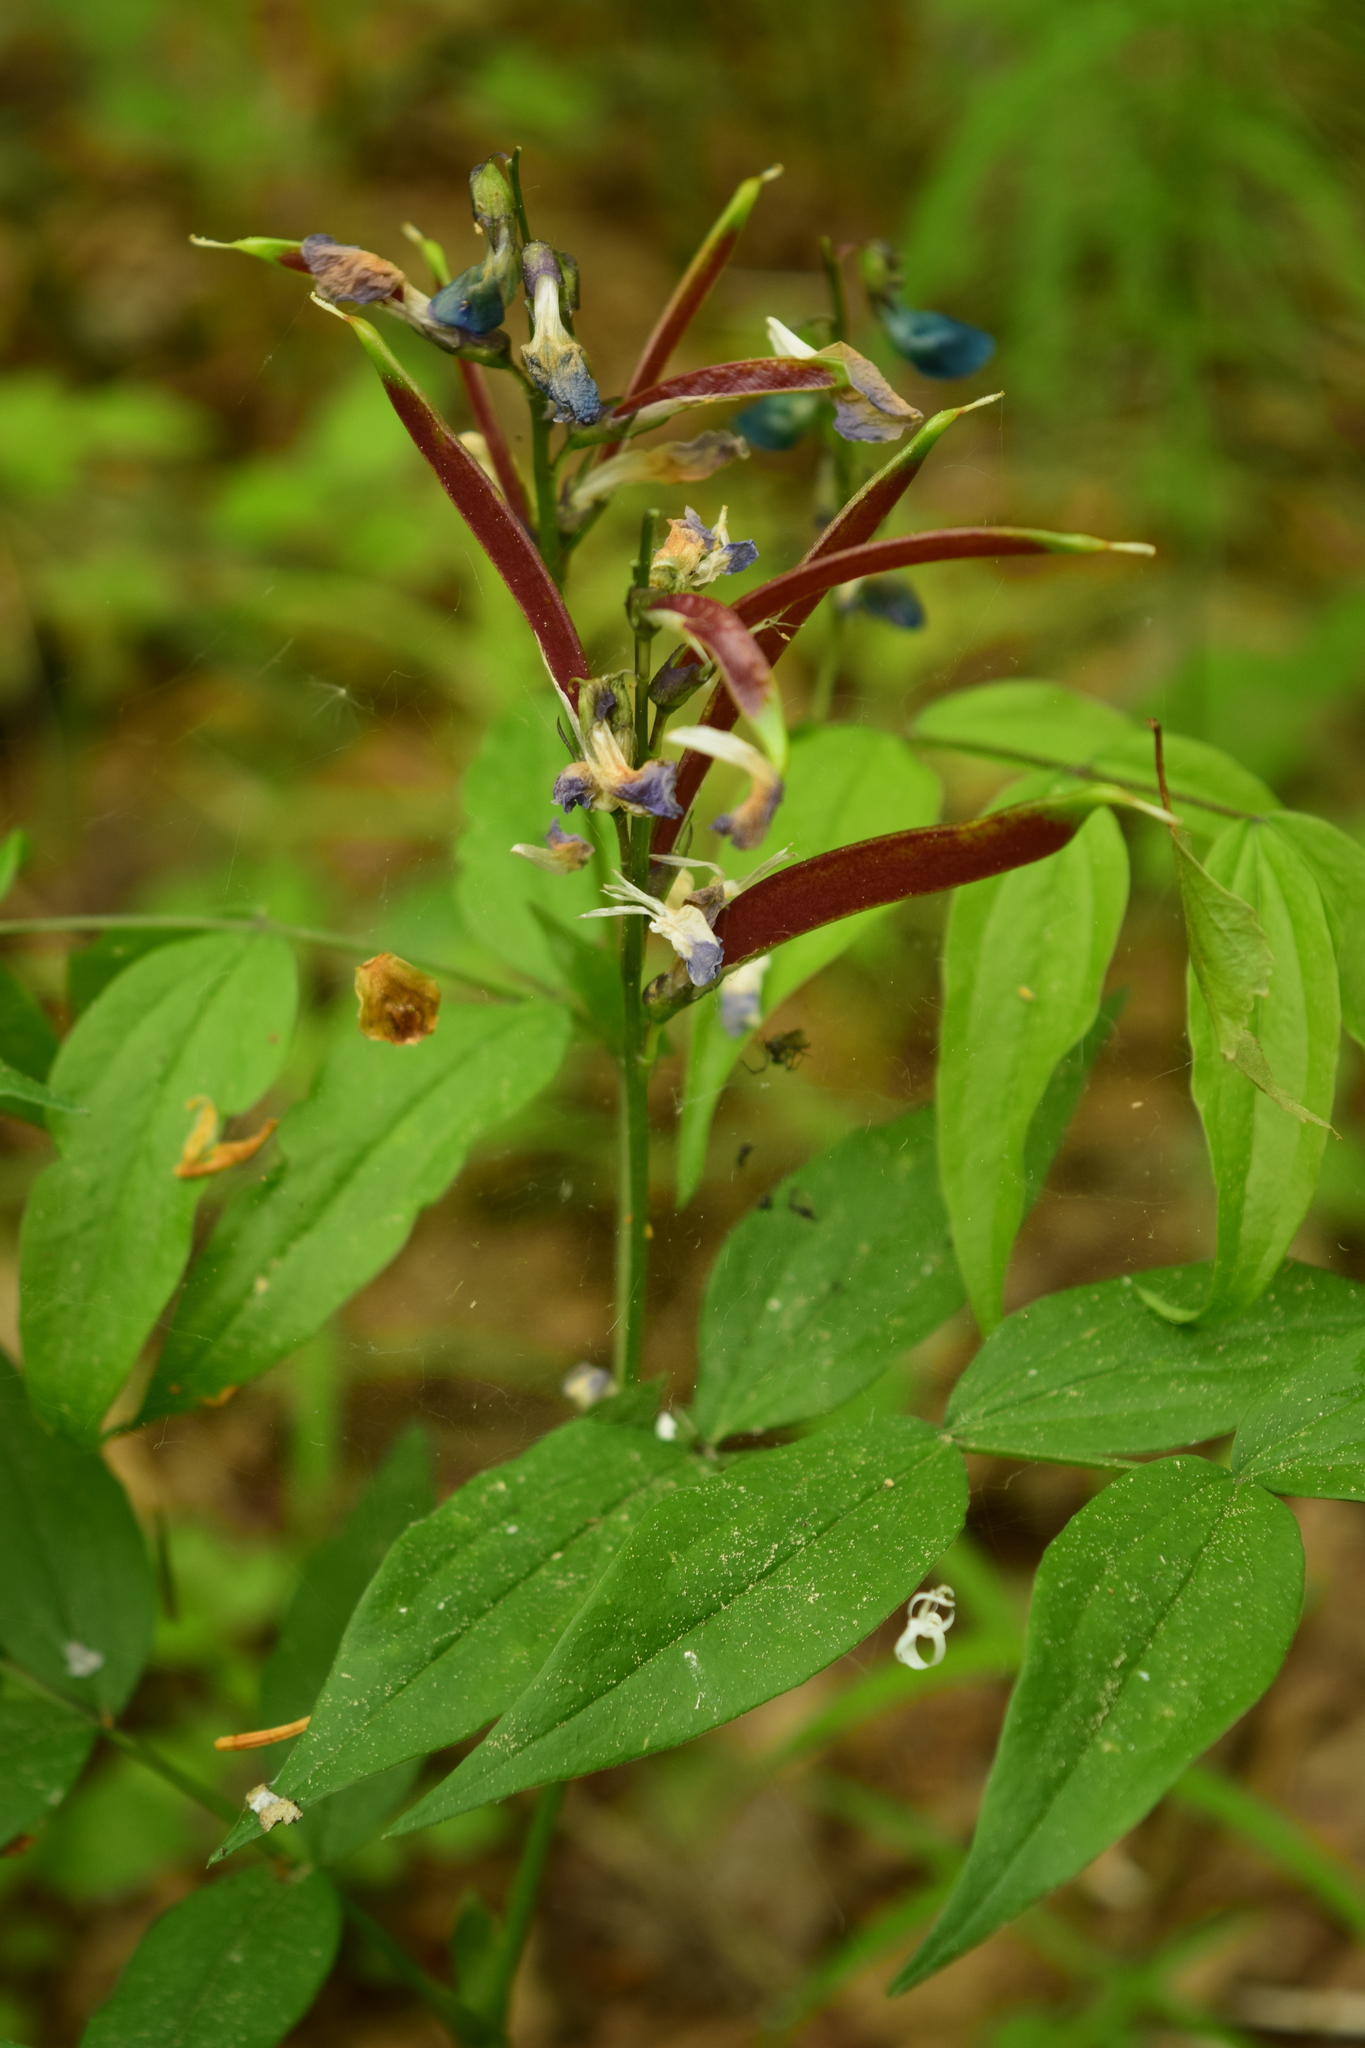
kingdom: Plantae
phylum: Tracheophyta
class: Magnoliopsida
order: Fabales
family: Fabaceae
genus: Lathyrus
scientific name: Lathyrus vernus
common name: Spring pea
